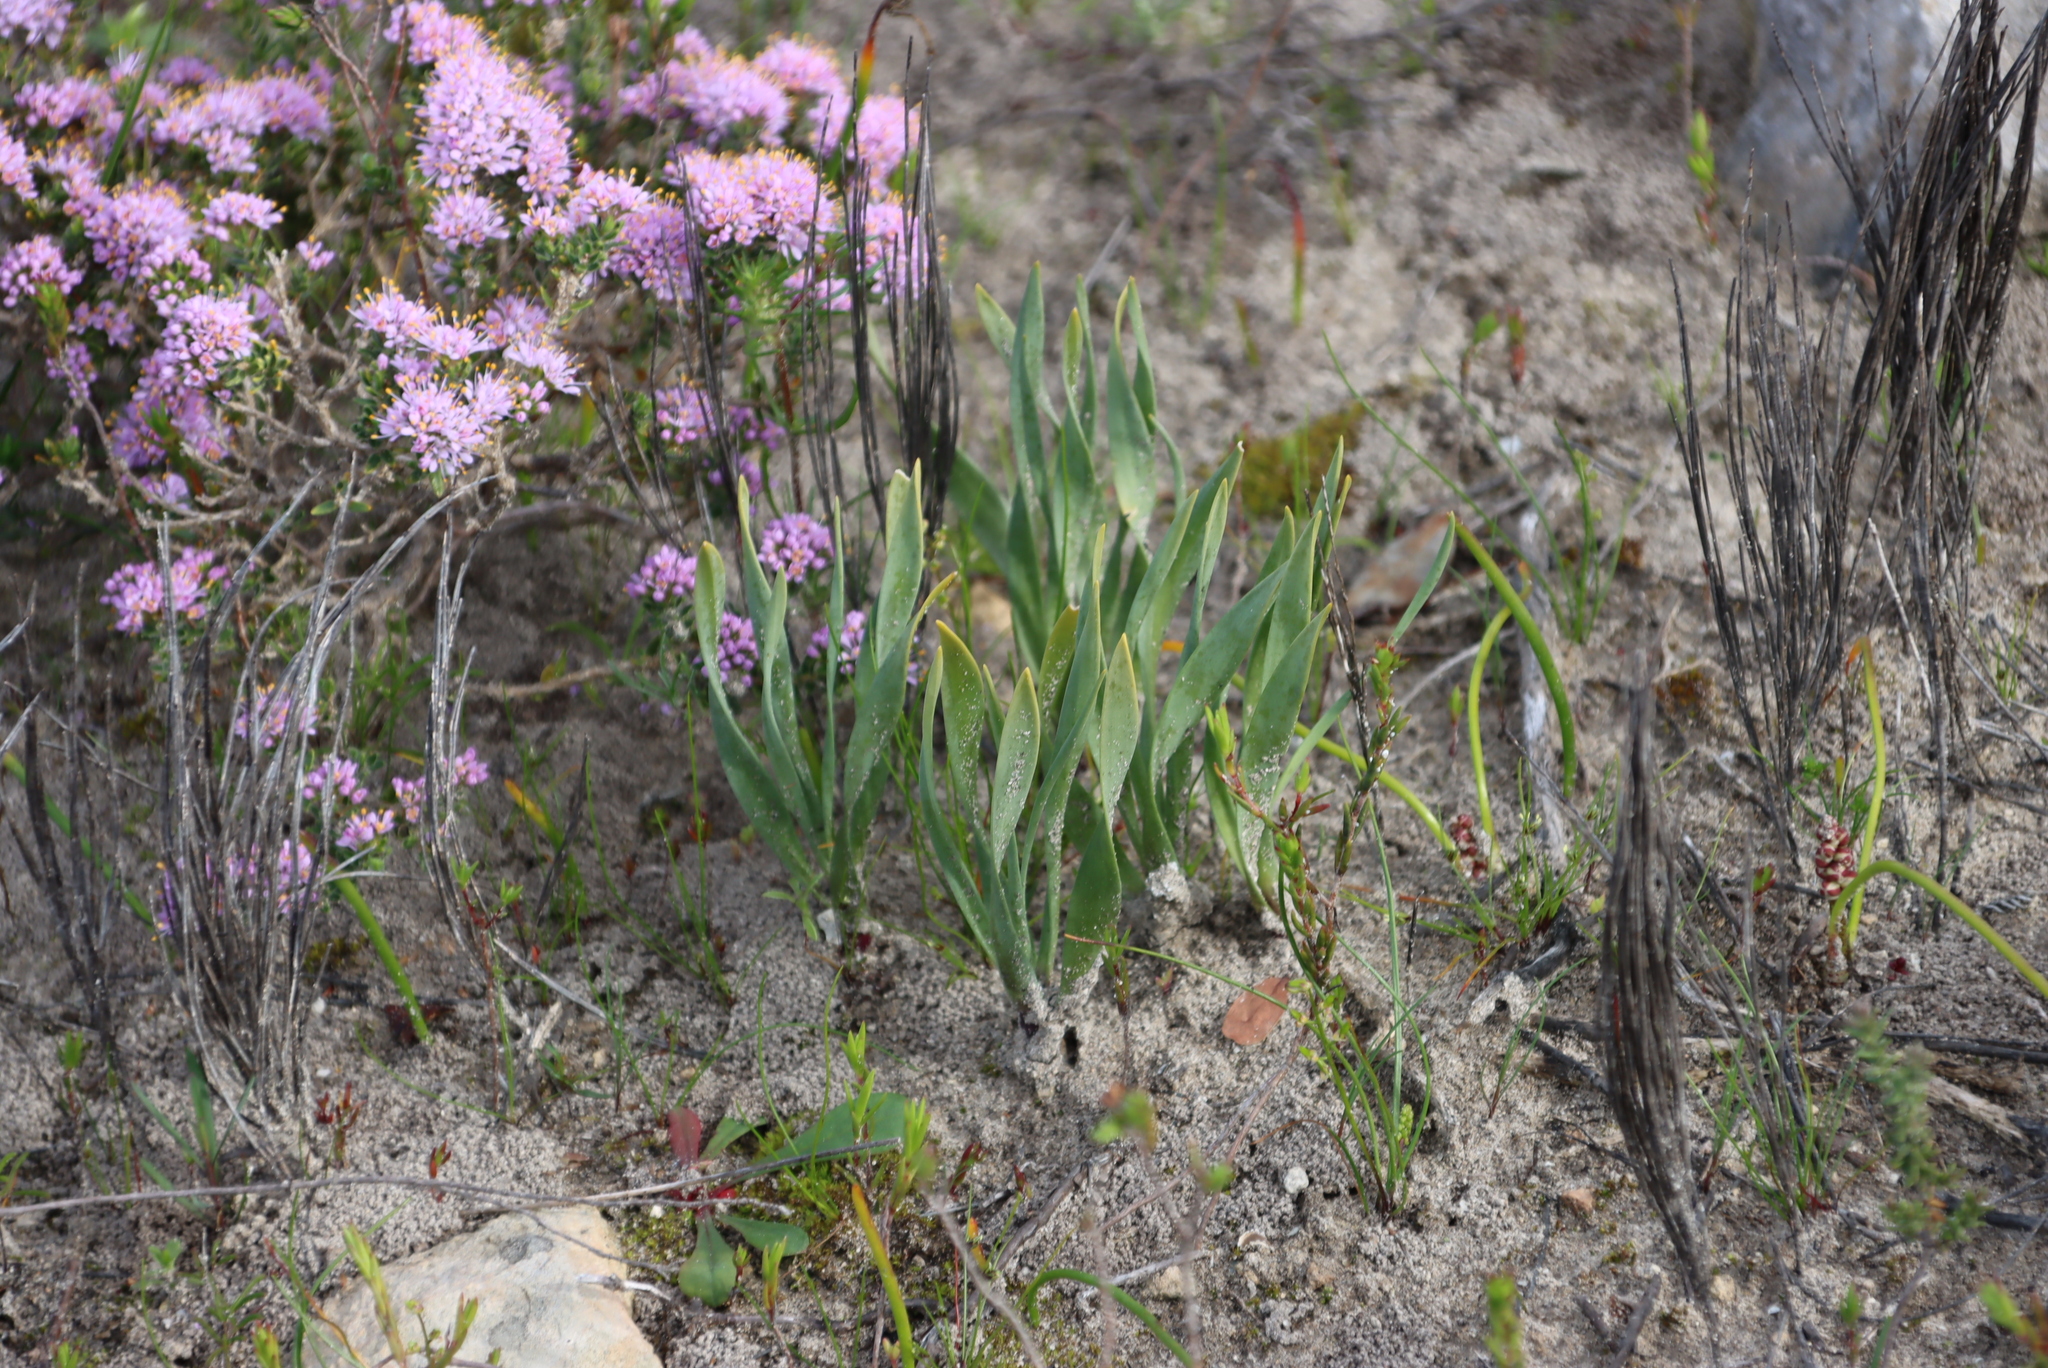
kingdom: Plantae
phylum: Tracheophyta
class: Liliopsida
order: Asparagales
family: Asparagaceae
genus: Fusifilum
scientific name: Fusifilum physodes
